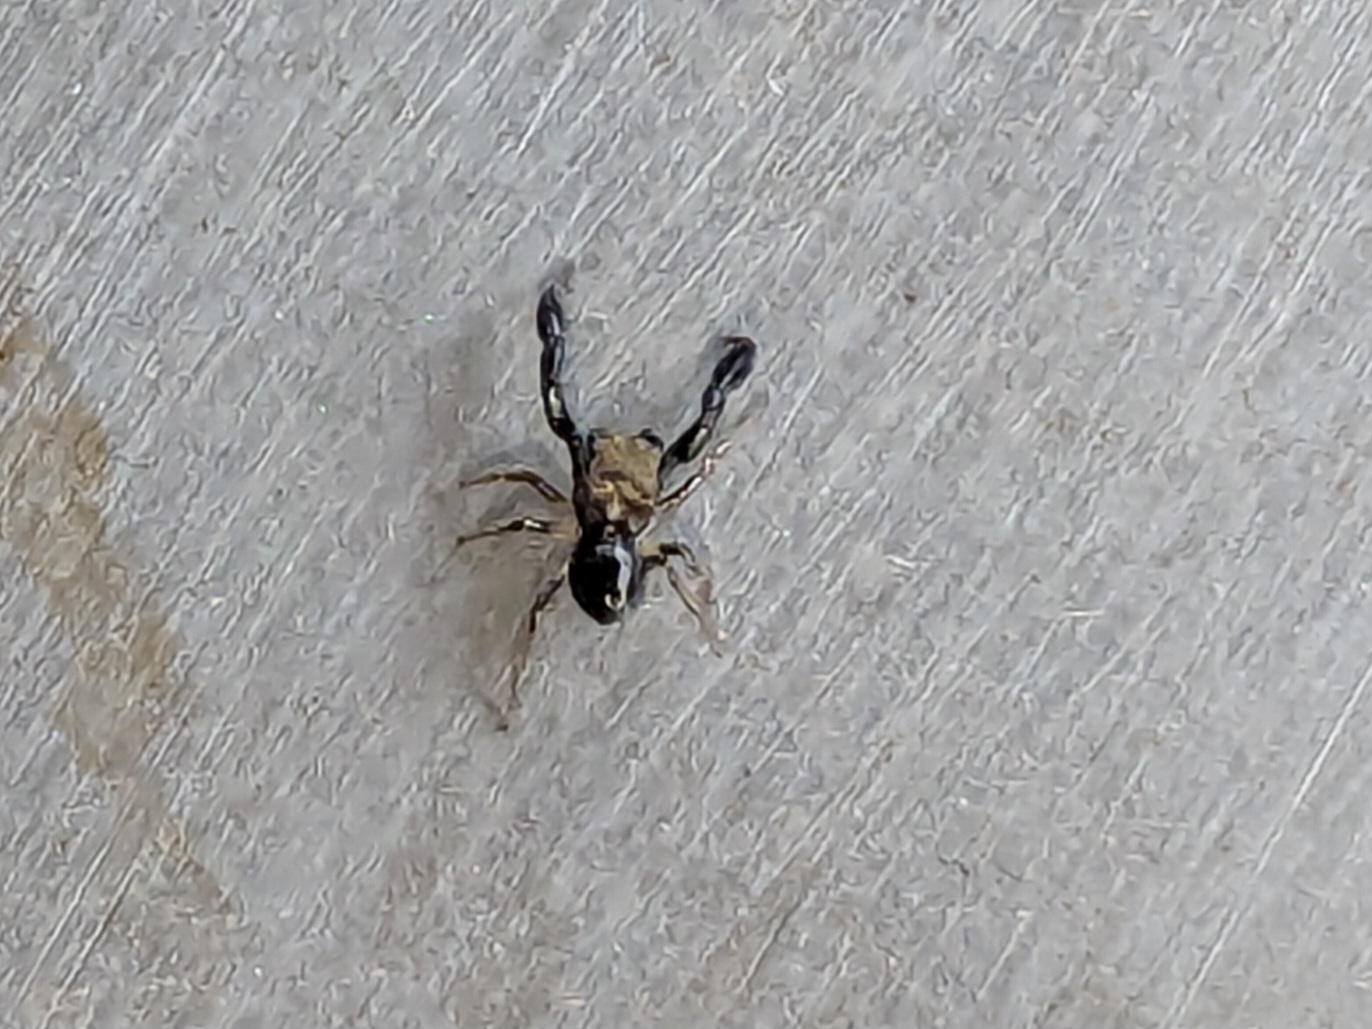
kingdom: Animalia
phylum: Arthropoda
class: Arachnida
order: Araneae
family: Salticidae
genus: Harmochirus
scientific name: Harmochirus brachiatus
